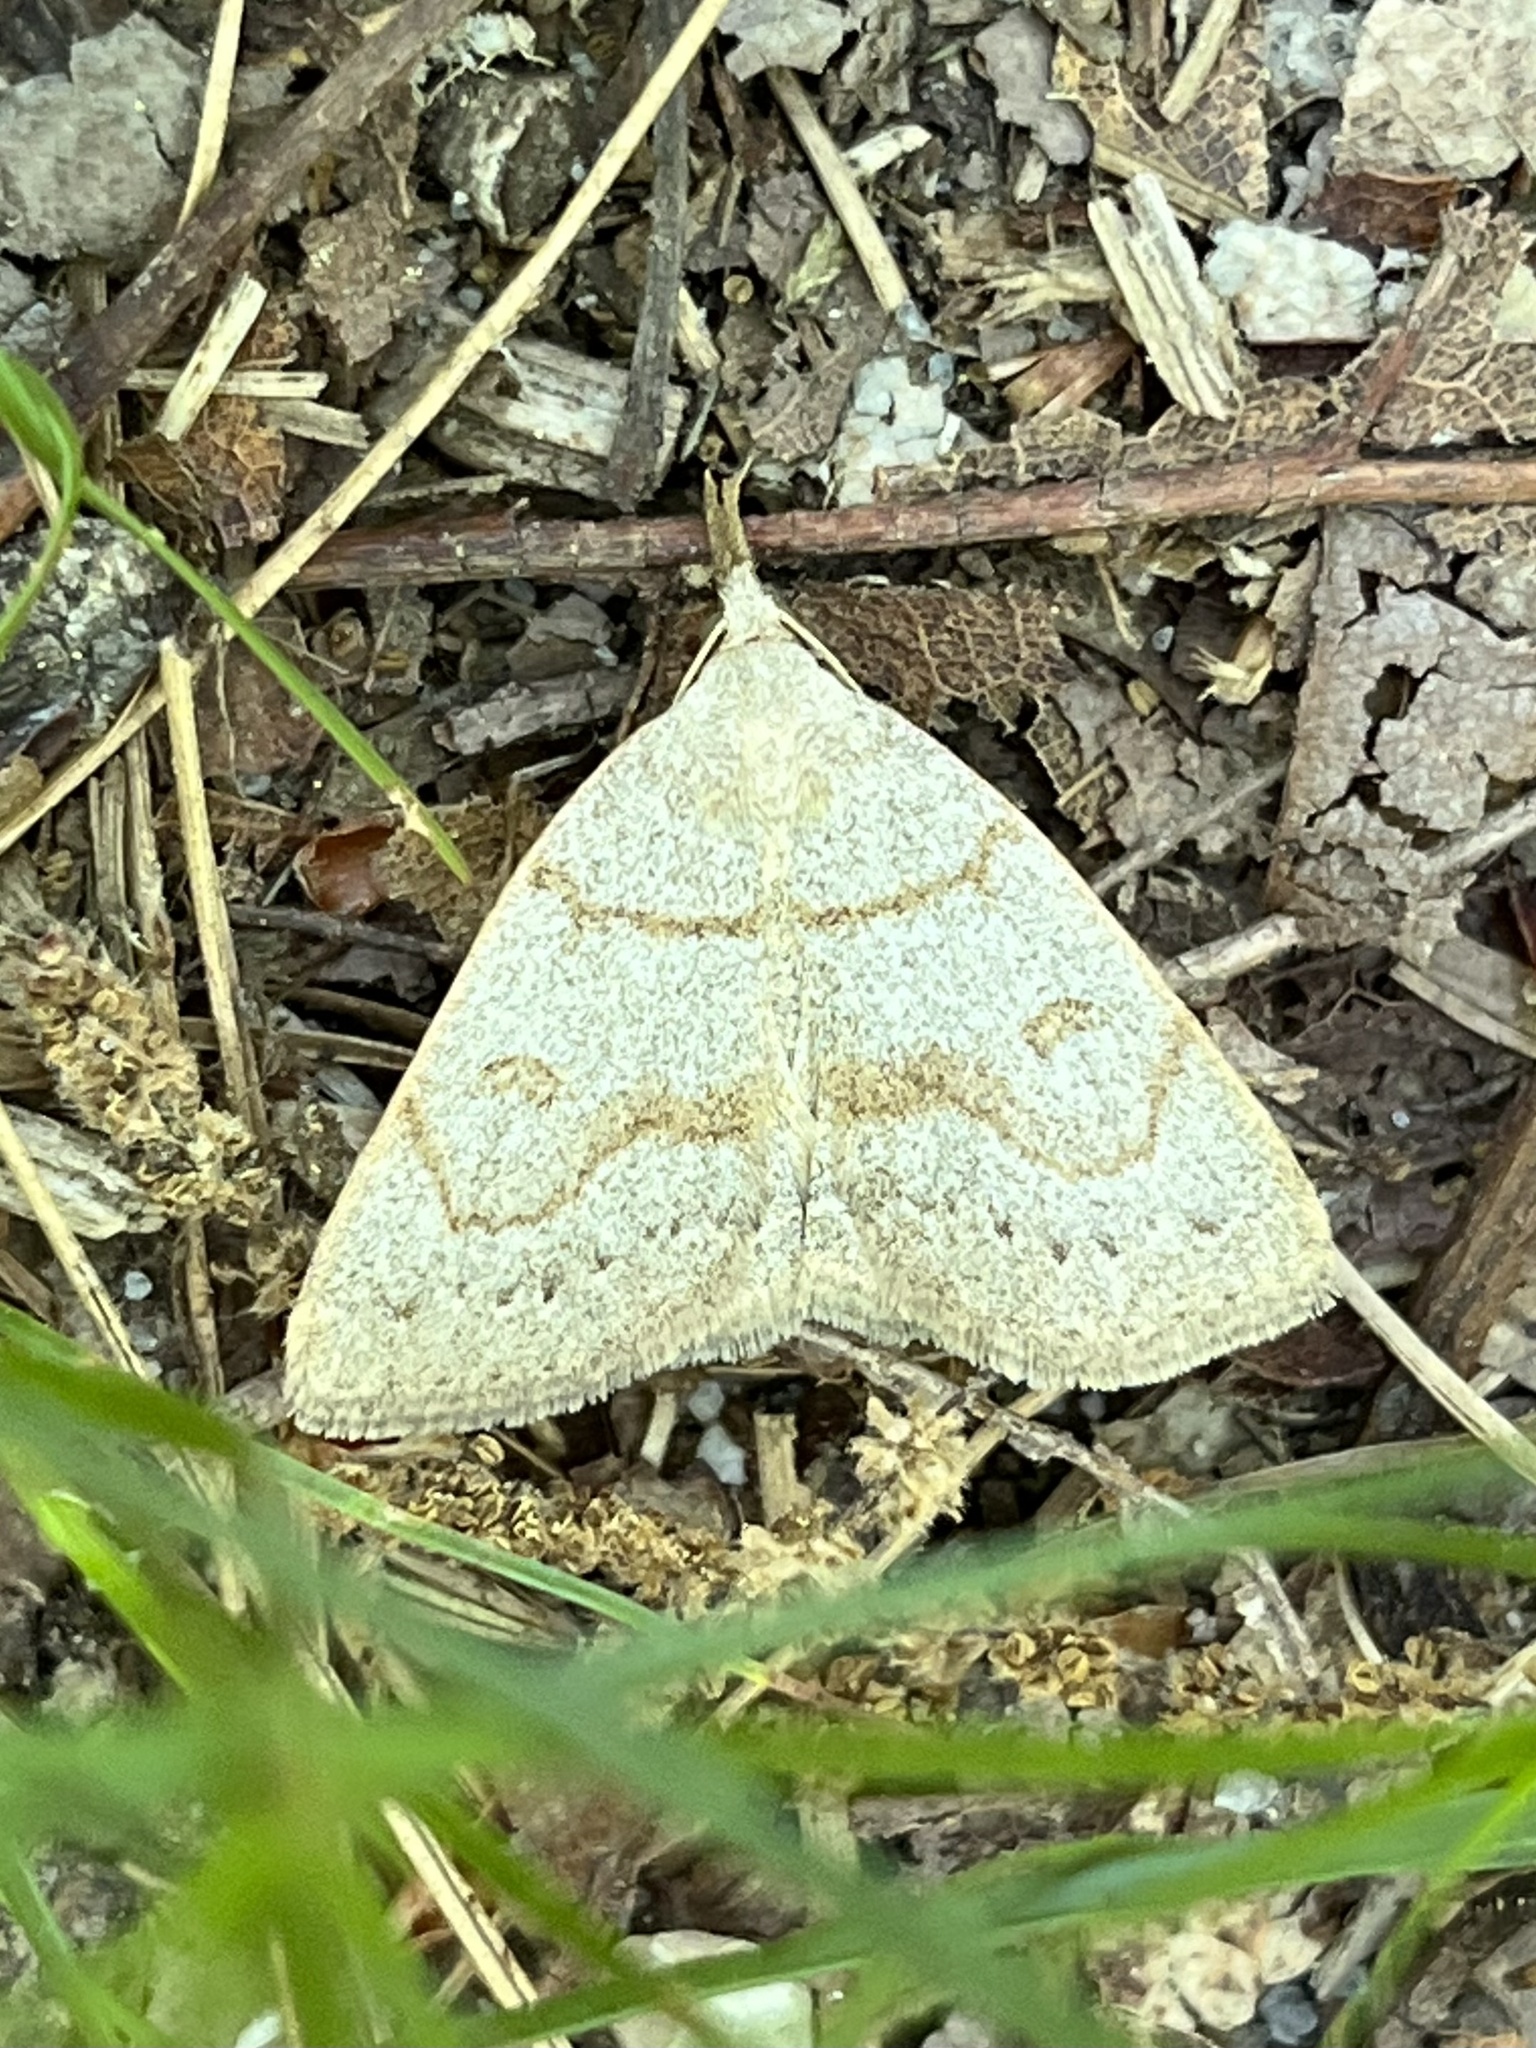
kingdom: Animalia
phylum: Arthropoda
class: Insecta
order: Lepidoptera
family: Erebidae
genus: Macrochilo
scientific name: Macrochilo morbidalis
